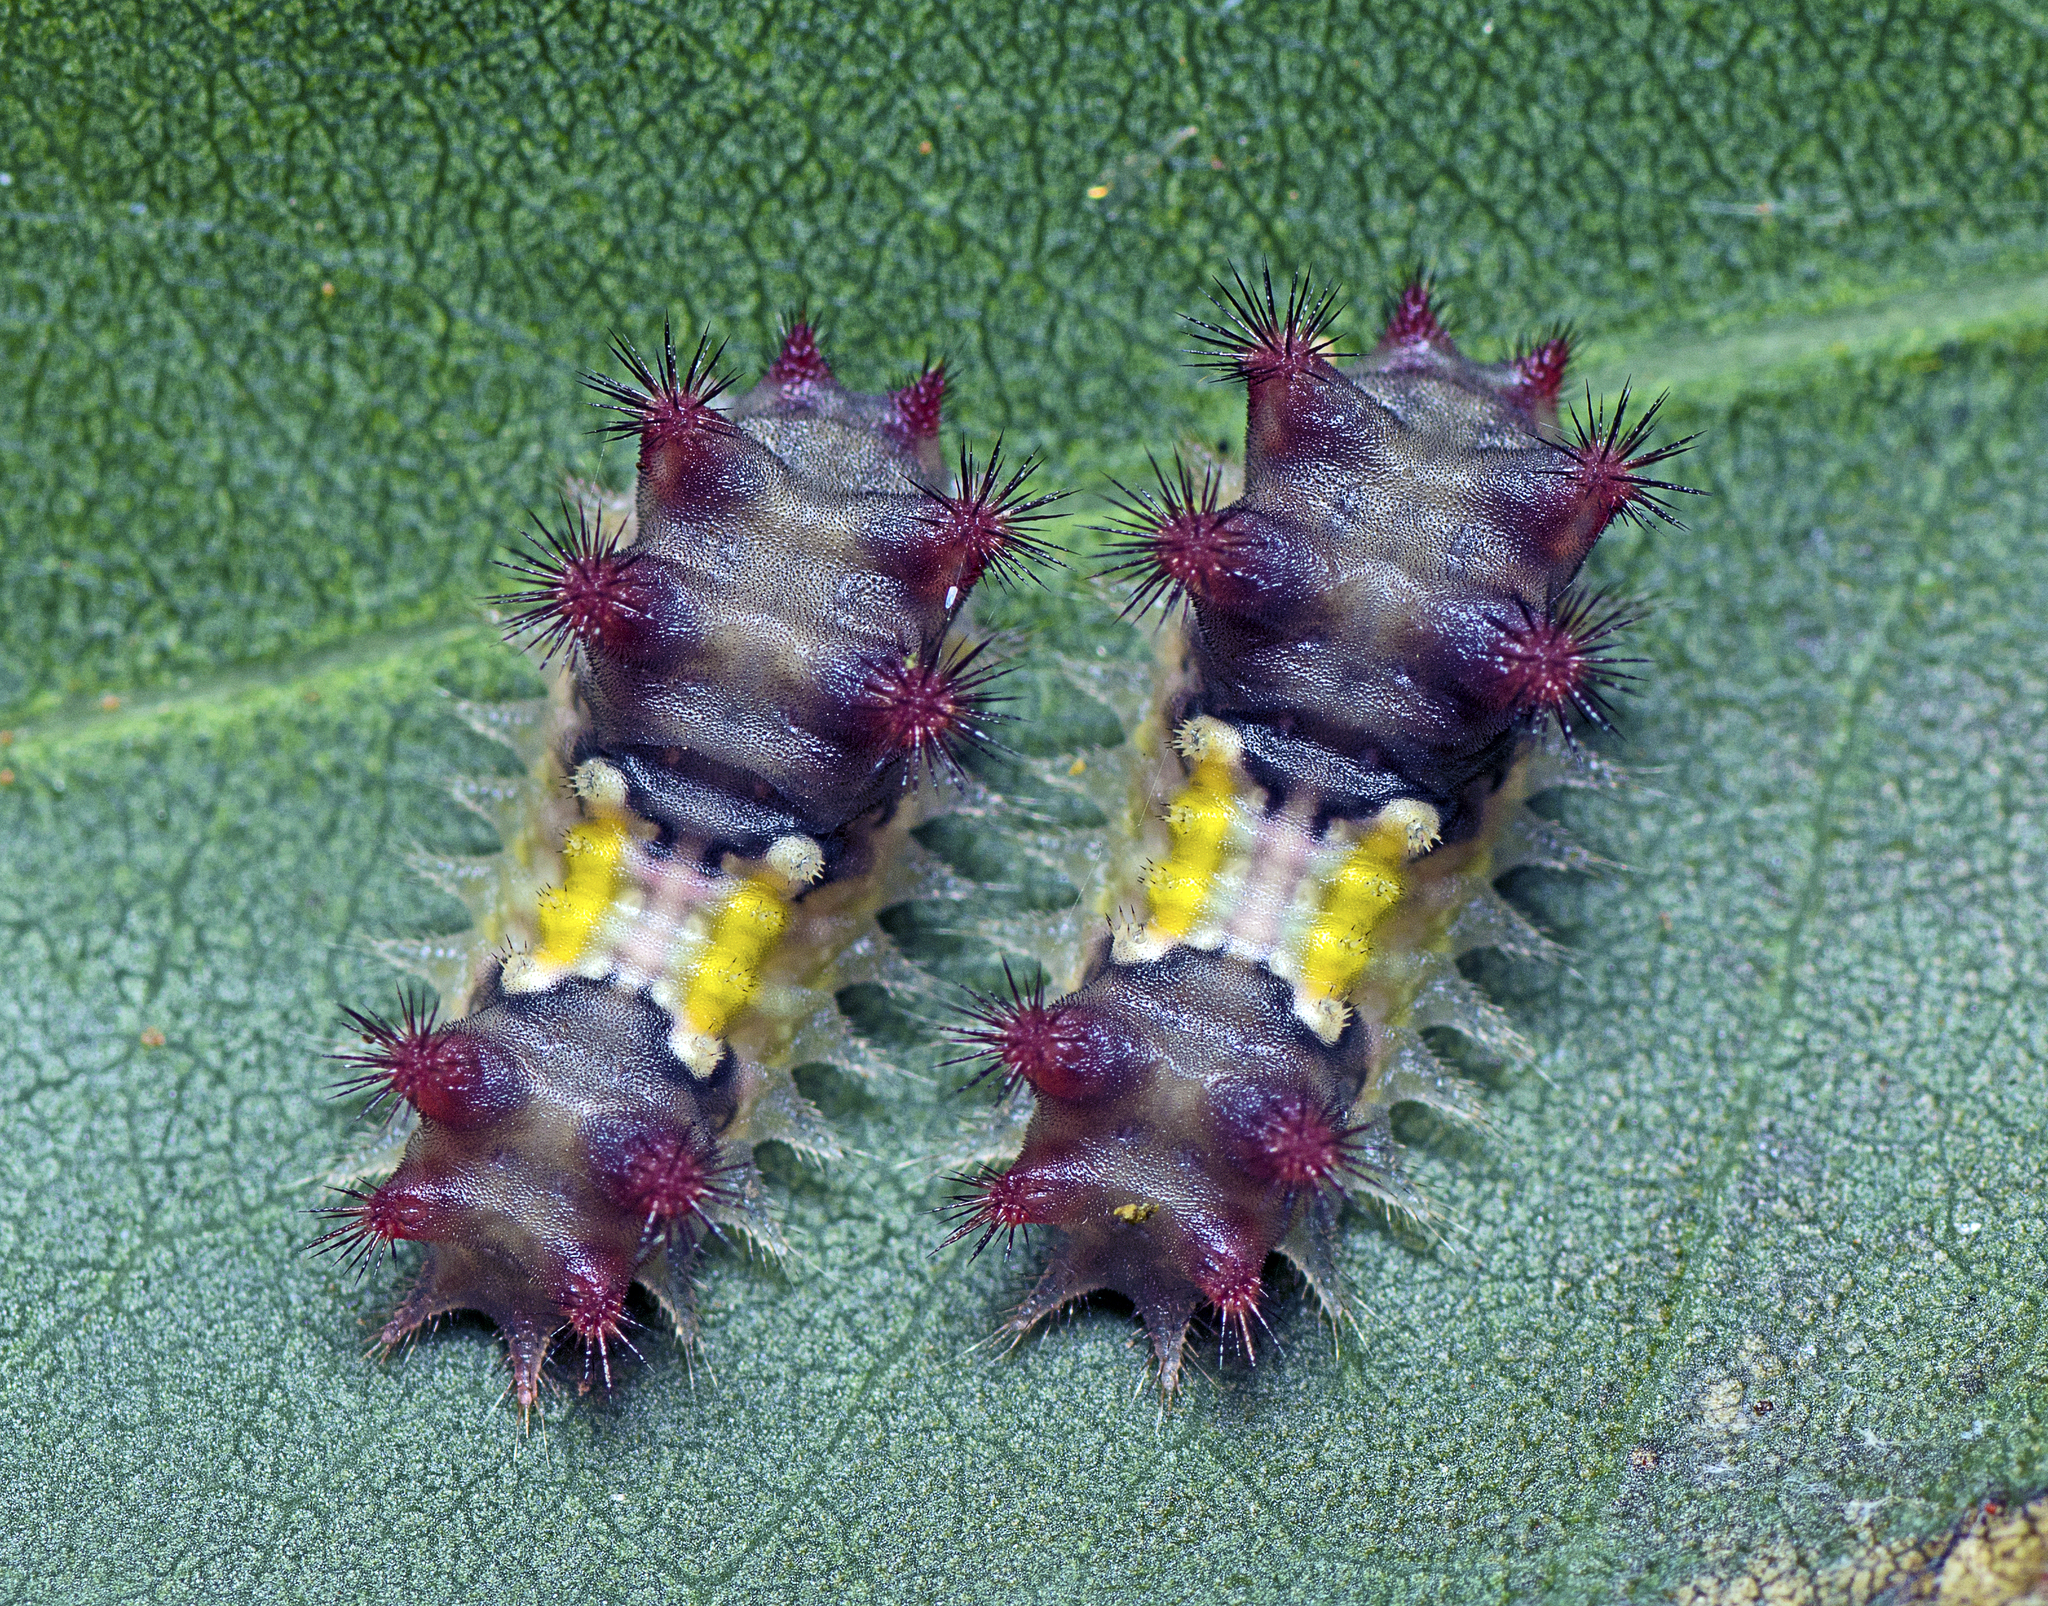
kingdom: Animalia
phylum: Arthropoda
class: Insecta
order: Lepidoptera
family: Limacodidae
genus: Doratifera
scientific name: Doratifera vulnerans
